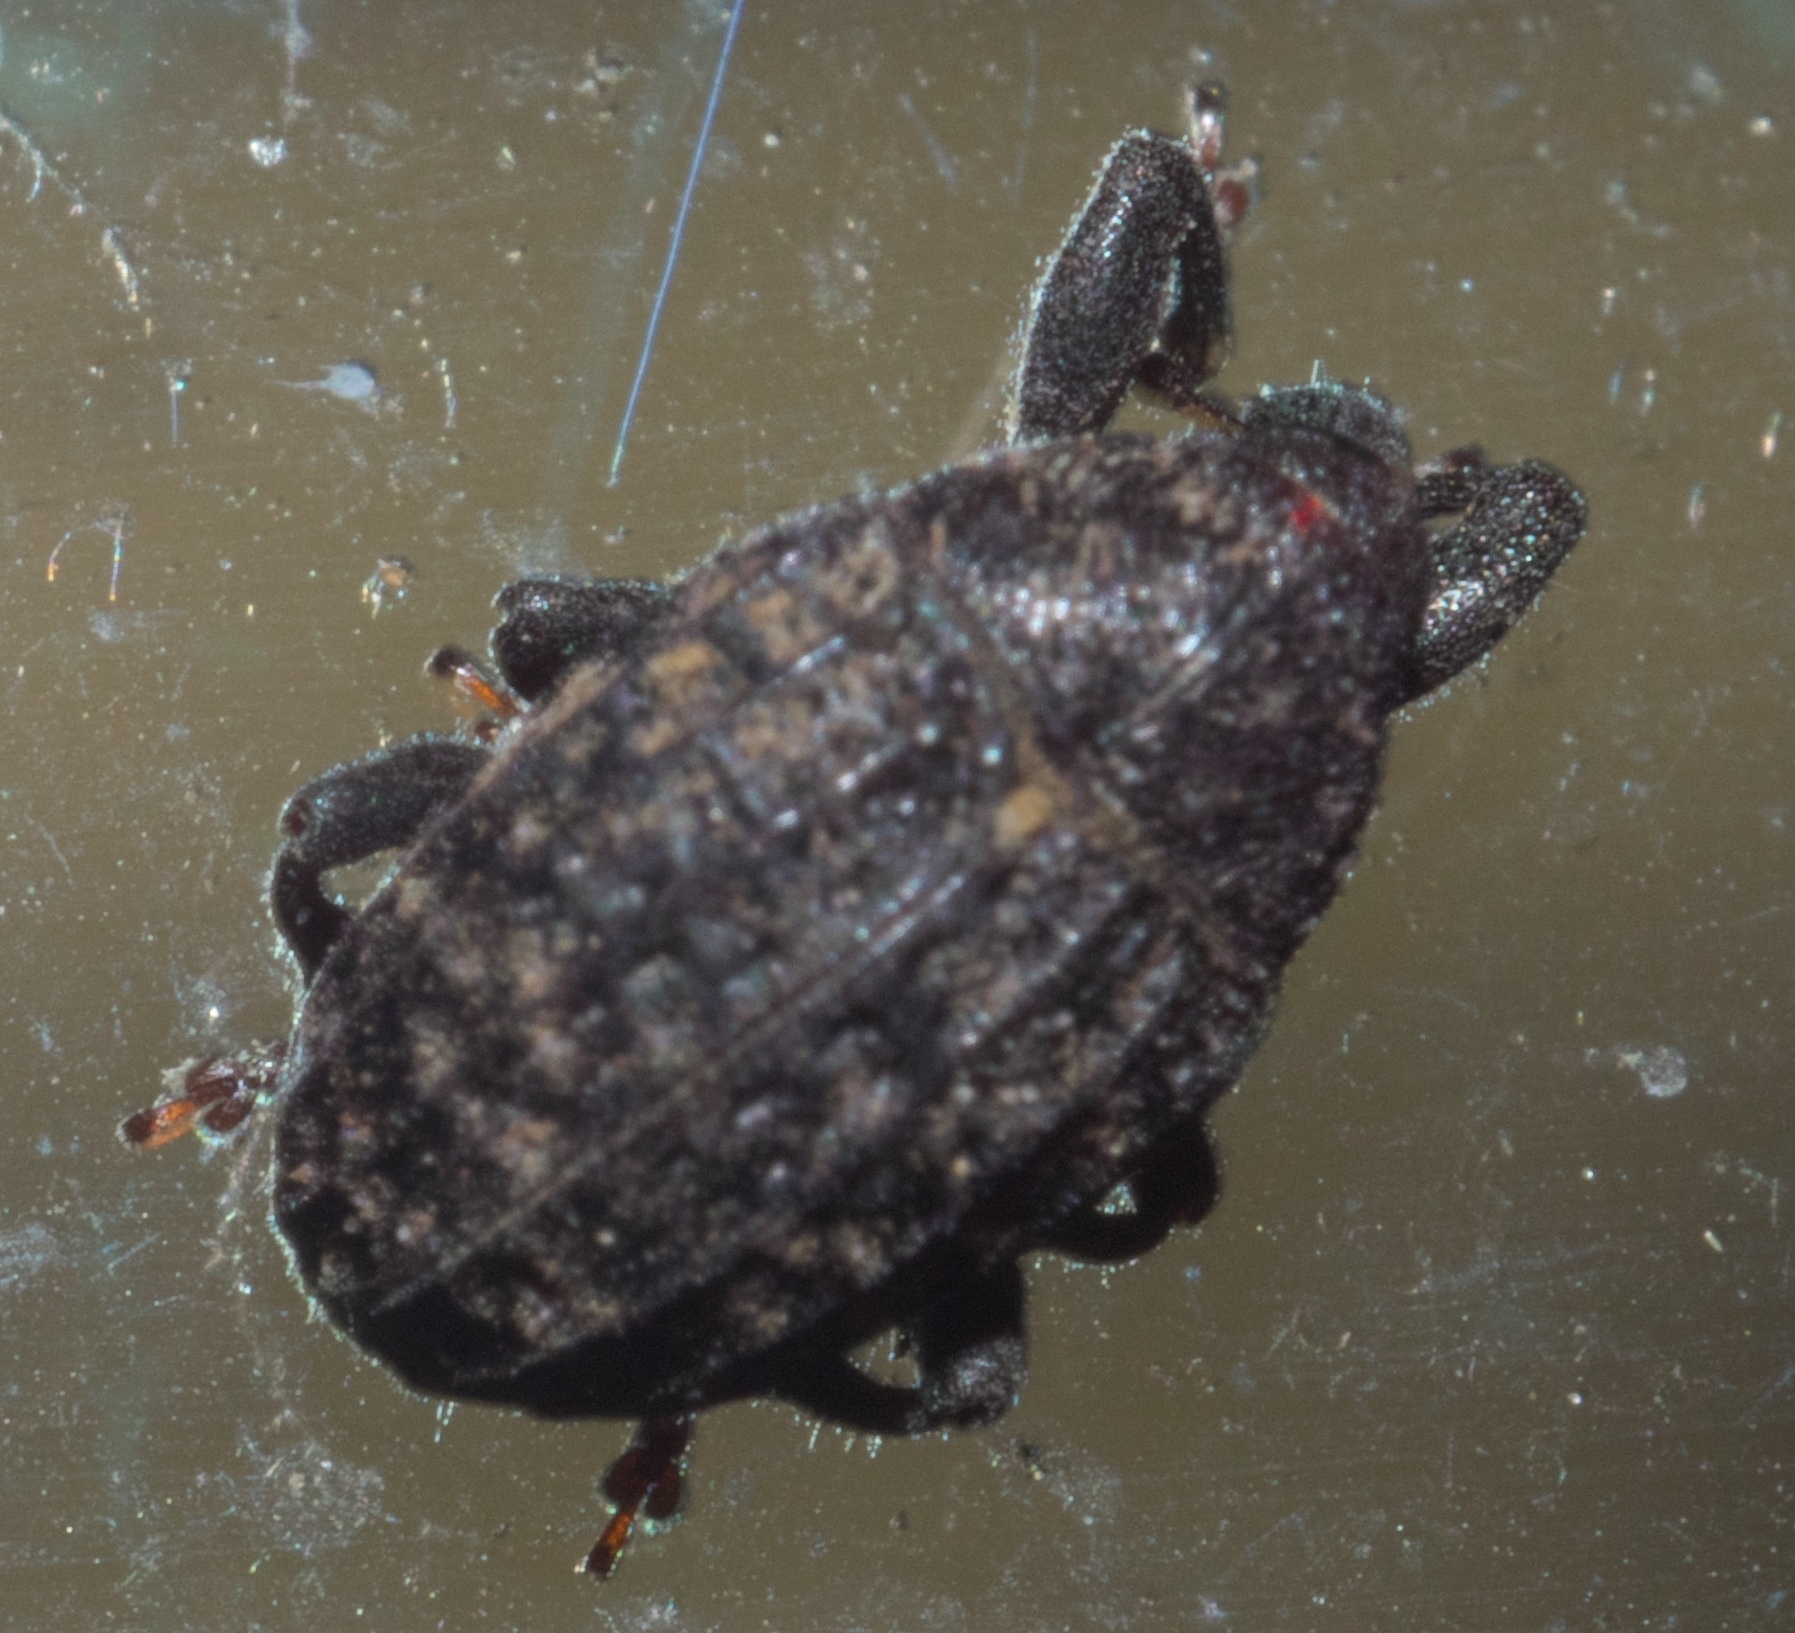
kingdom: Animalia
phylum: Arthropoda
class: Insecta
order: Coleoptera
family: Curculionidae
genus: Rhyssomatus
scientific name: Rhyssomatus palmacollis
